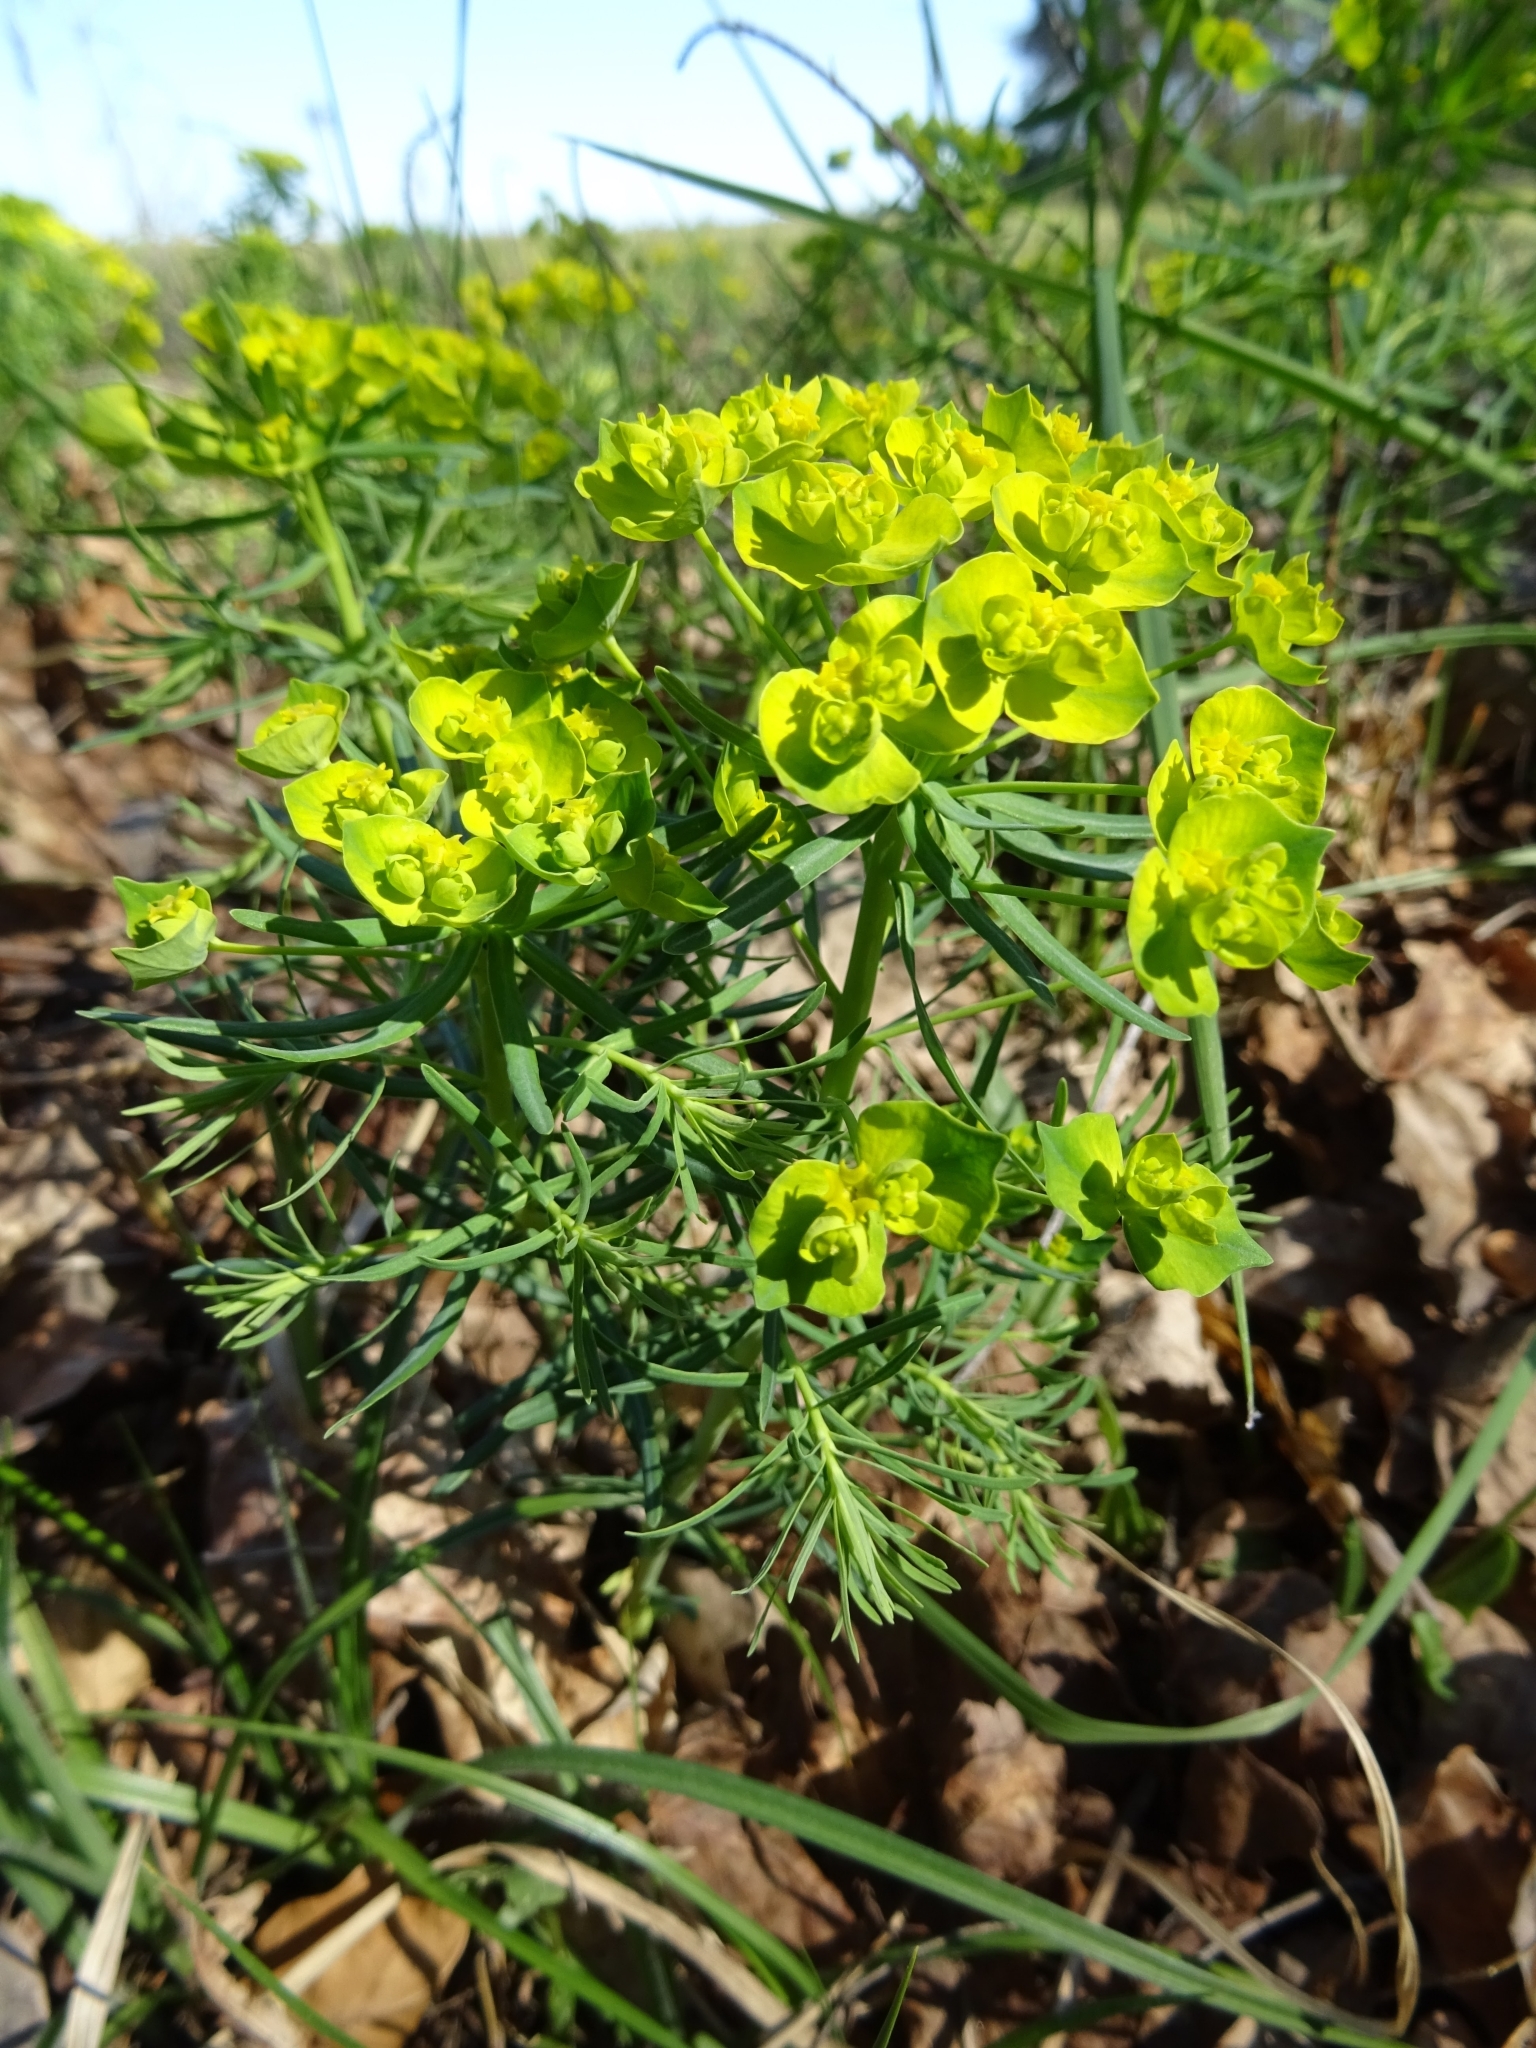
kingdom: Plantae
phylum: Tracheophyta
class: Magnoliopsida
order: Malpighiales
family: Euphorbiaceae
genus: Euphorbia
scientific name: Euphorbia cyparissias
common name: Cypress spurge
